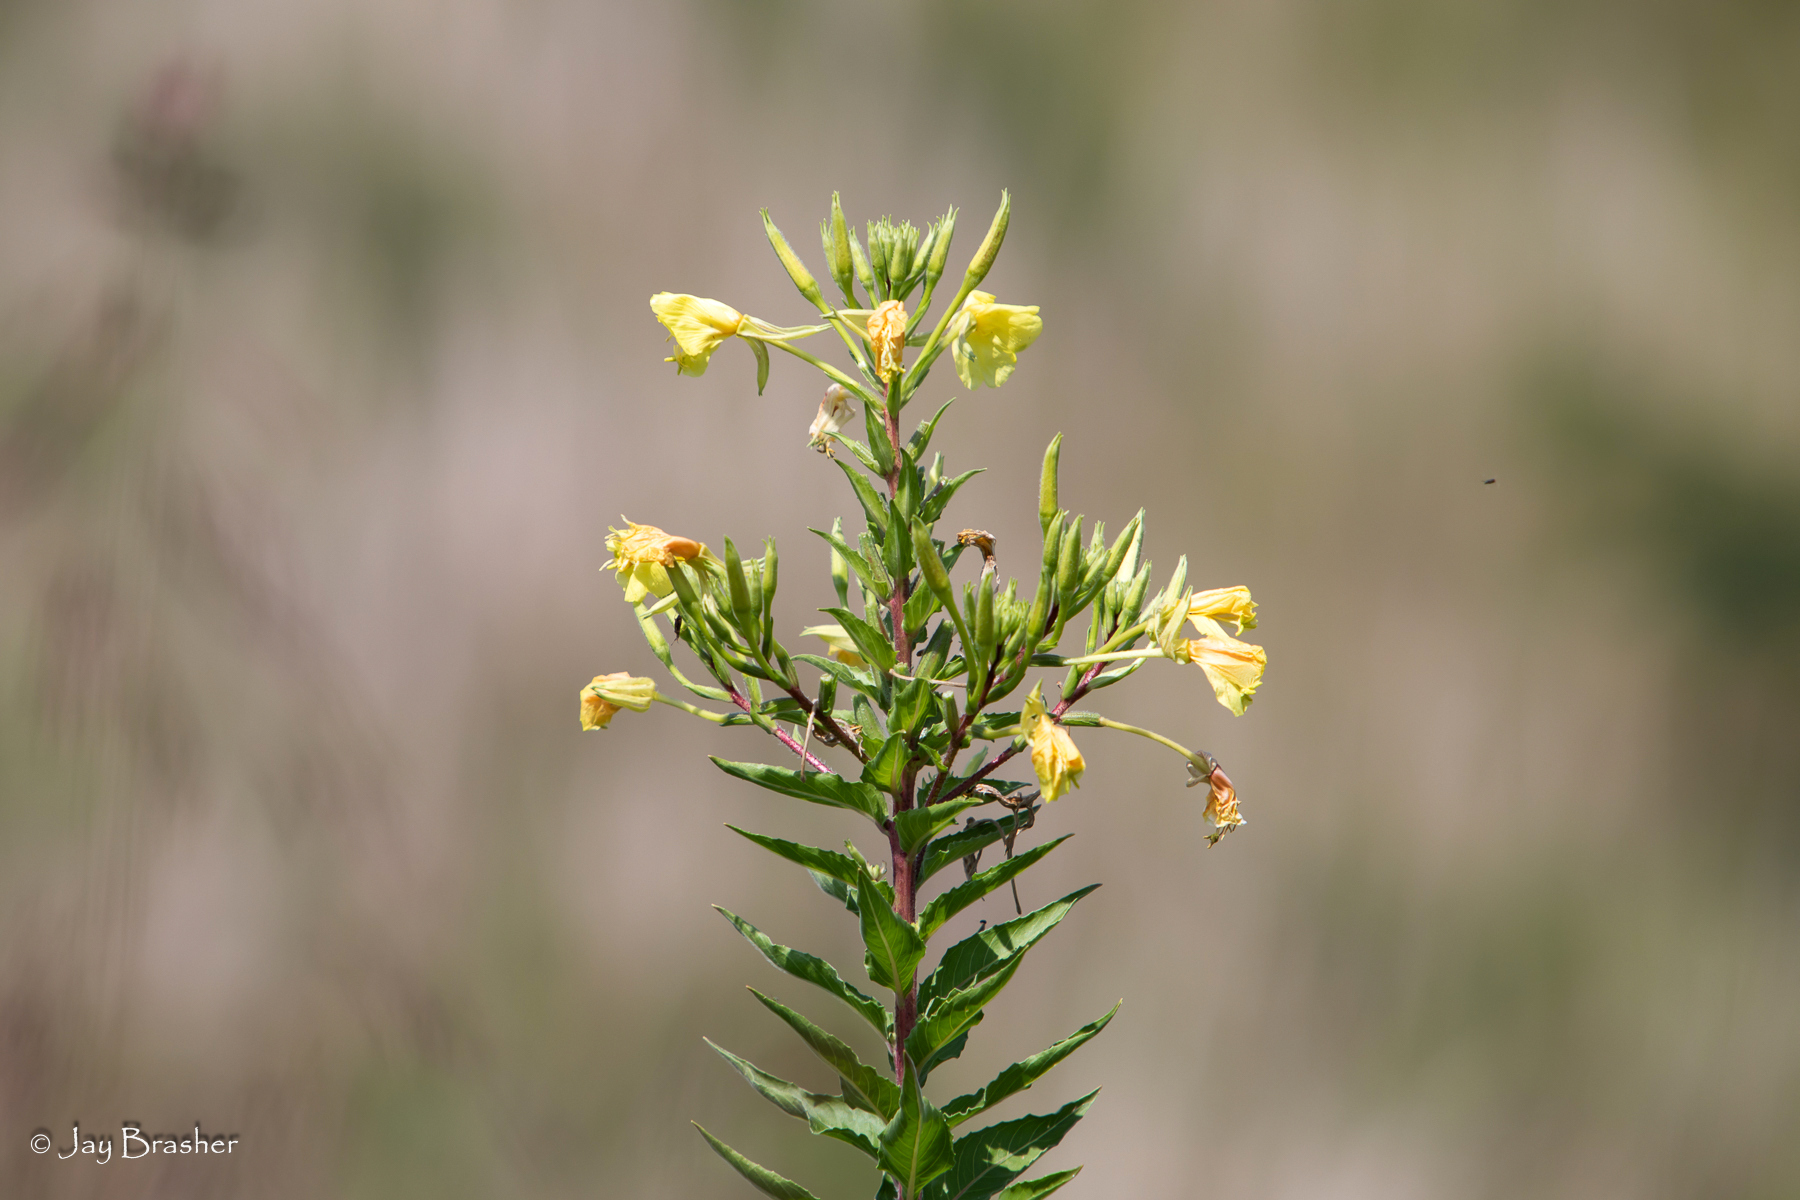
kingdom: Plantae
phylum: Tracheophyta
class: Magnoliopsida
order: Myrtales
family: Onagraceae
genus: Oenothera
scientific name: Oenothera biennis
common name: Common evening-primrose
